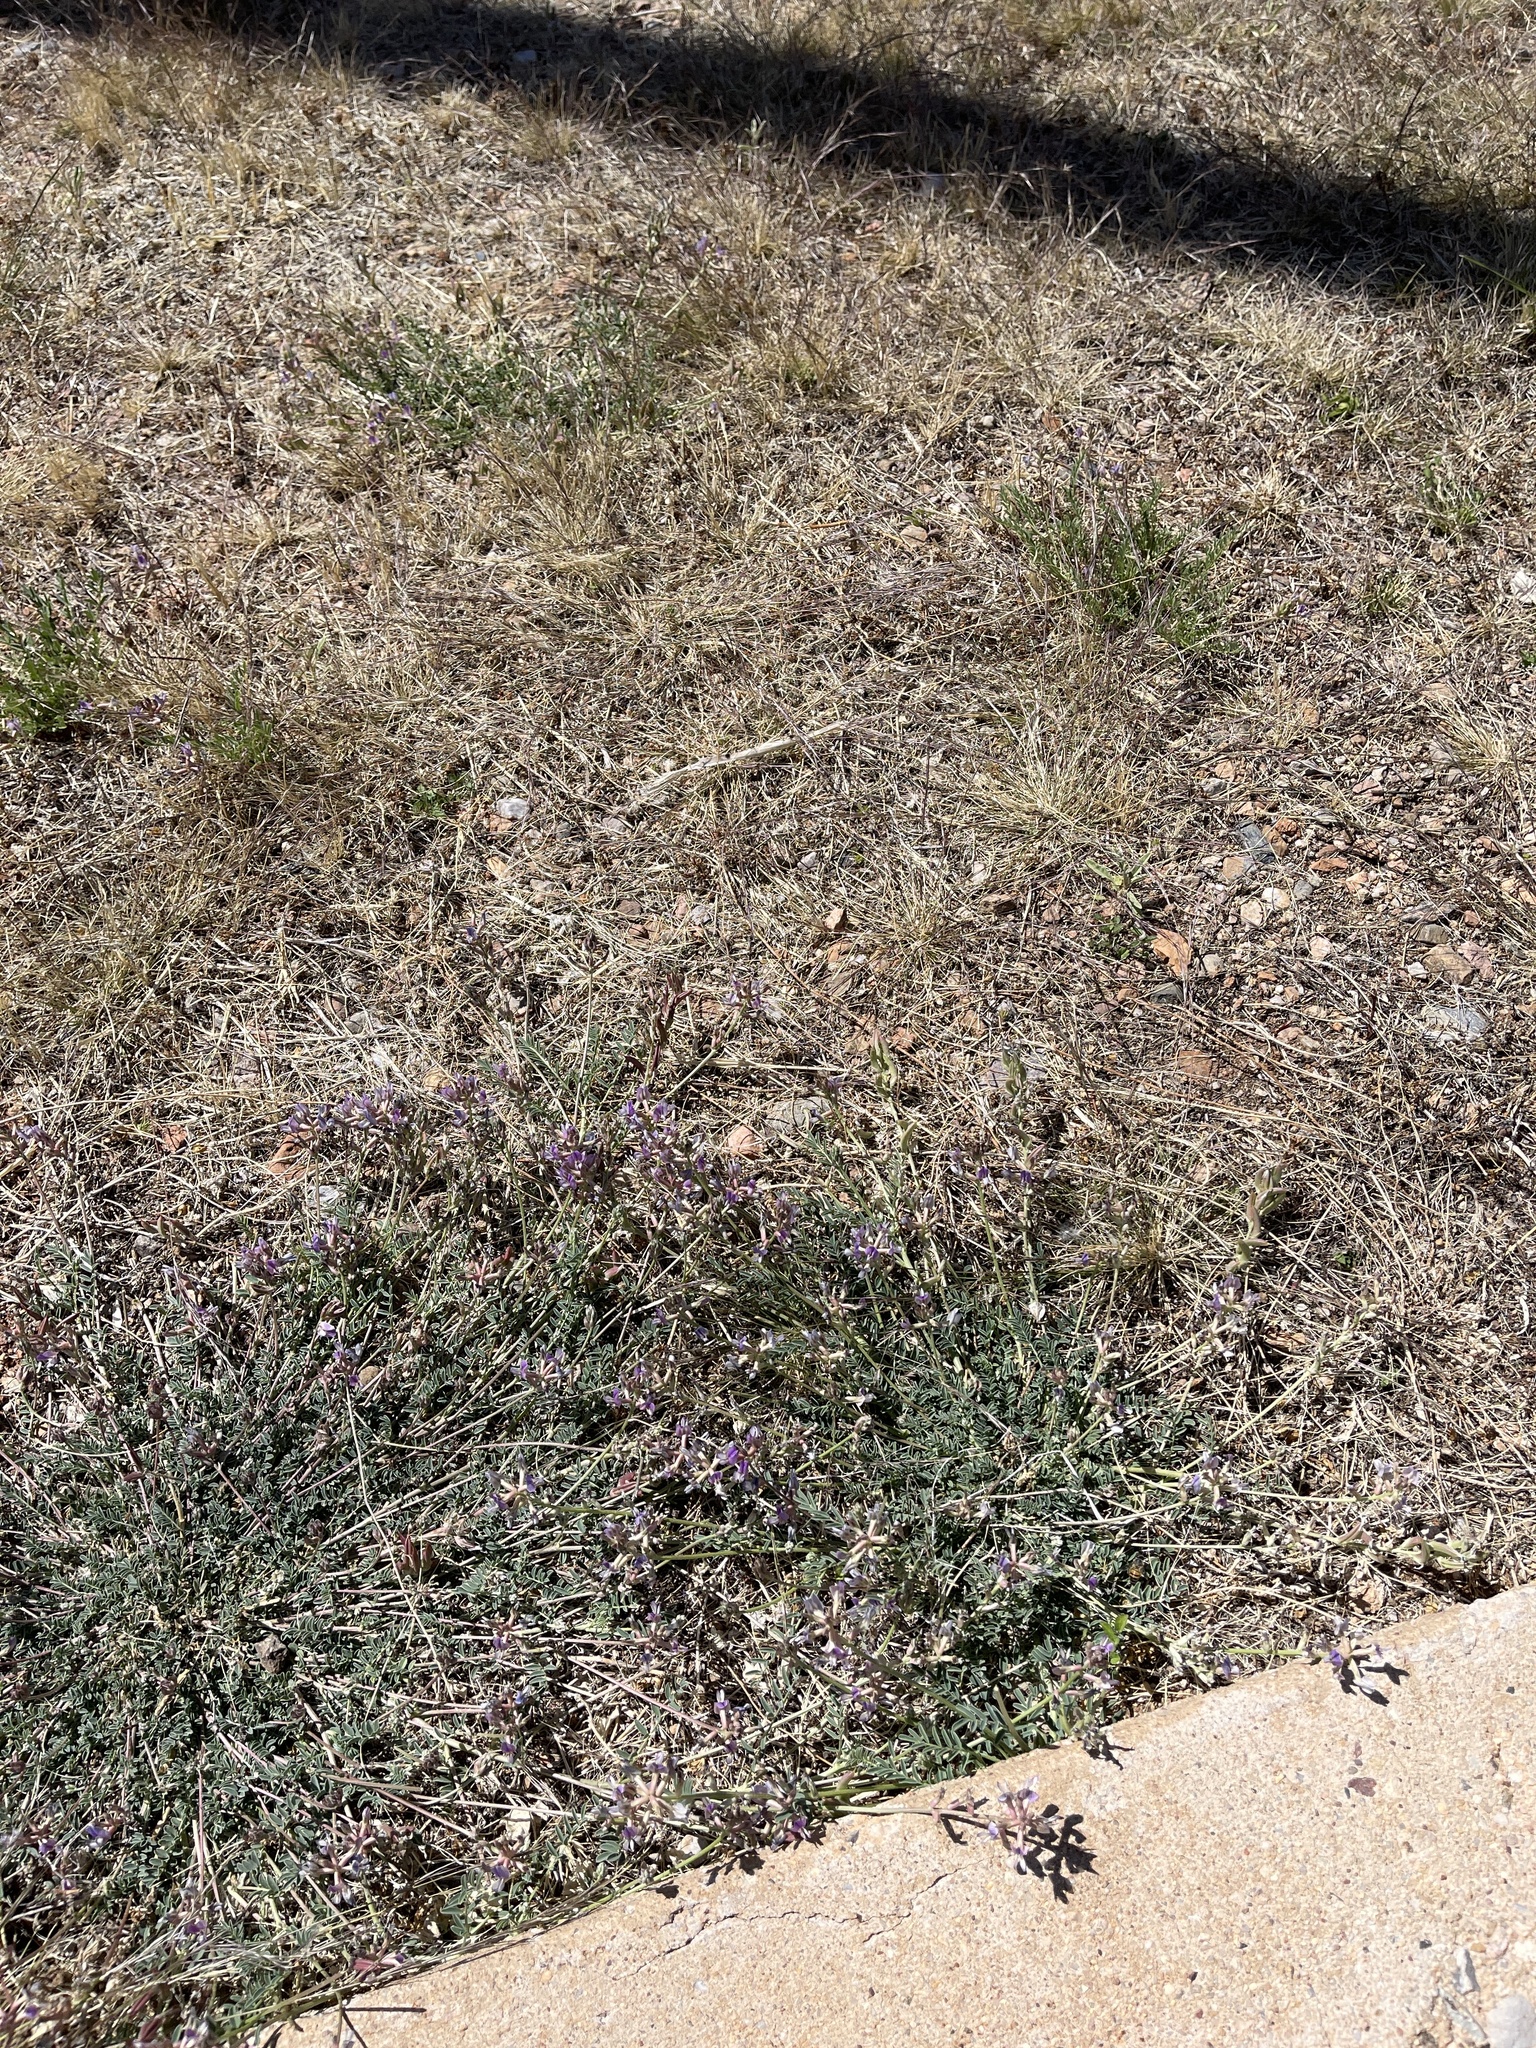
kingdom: Plantae
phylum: Tracheophyta
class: Magnoliopsida
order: Fabales
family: Fabaceae
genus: Astragalus
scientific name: Astragalus nothoxys
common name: Beaked milk-vetch
